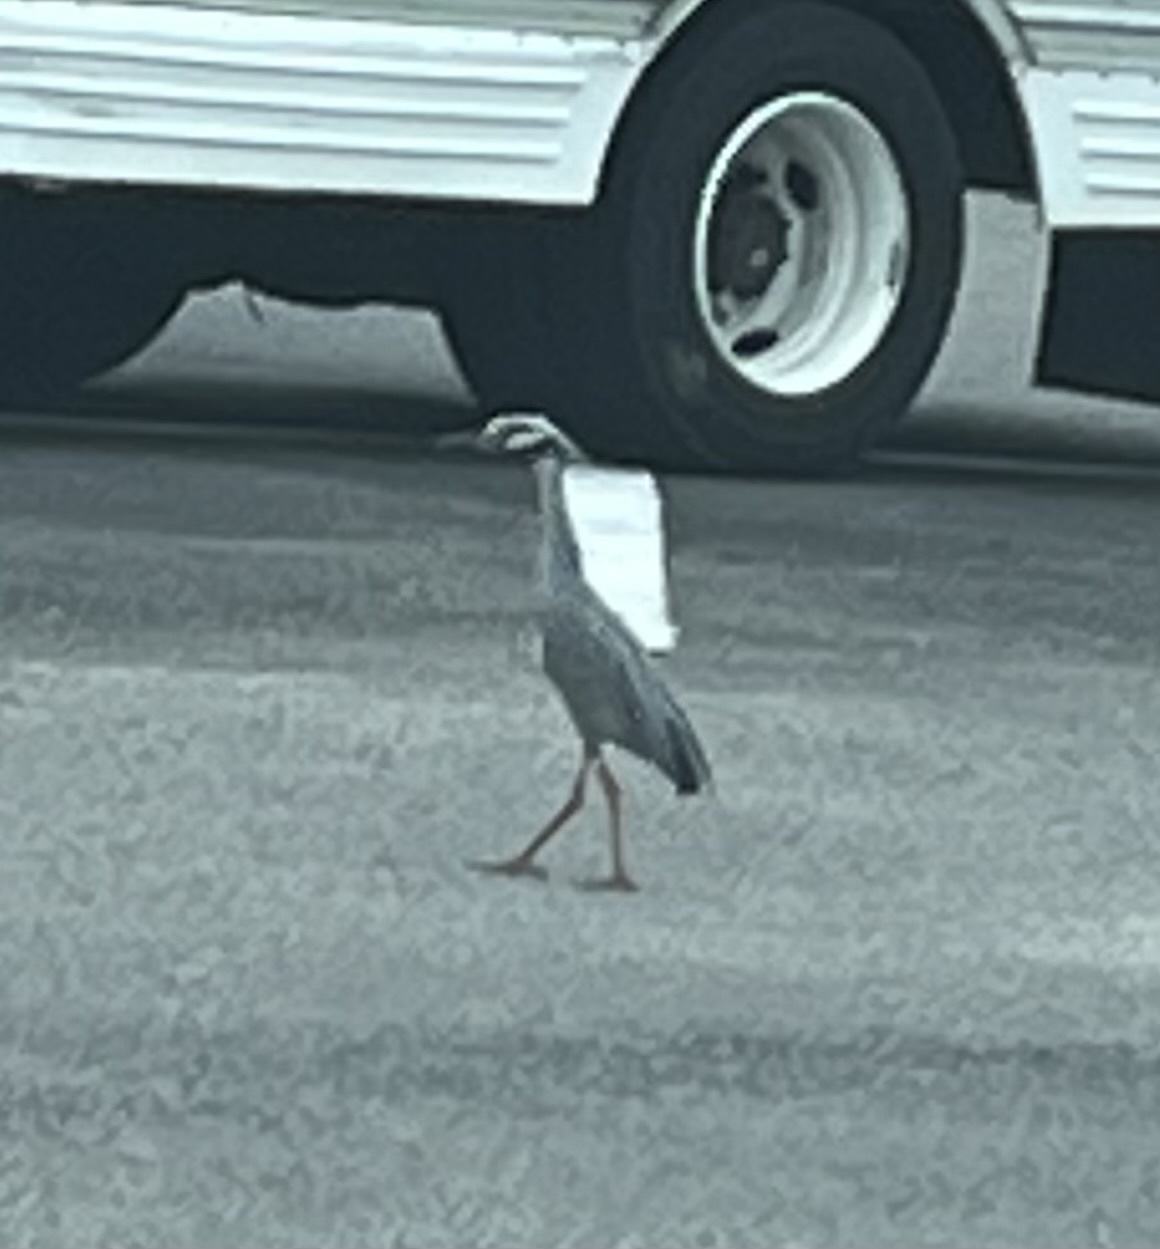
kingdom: Animalia
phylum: Chordata
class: Aves
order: Pelecaniformes
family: Ardeidae
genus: Nyctanassa
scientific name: Nyctanassa violacea
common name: Yellow-crowned night heron
